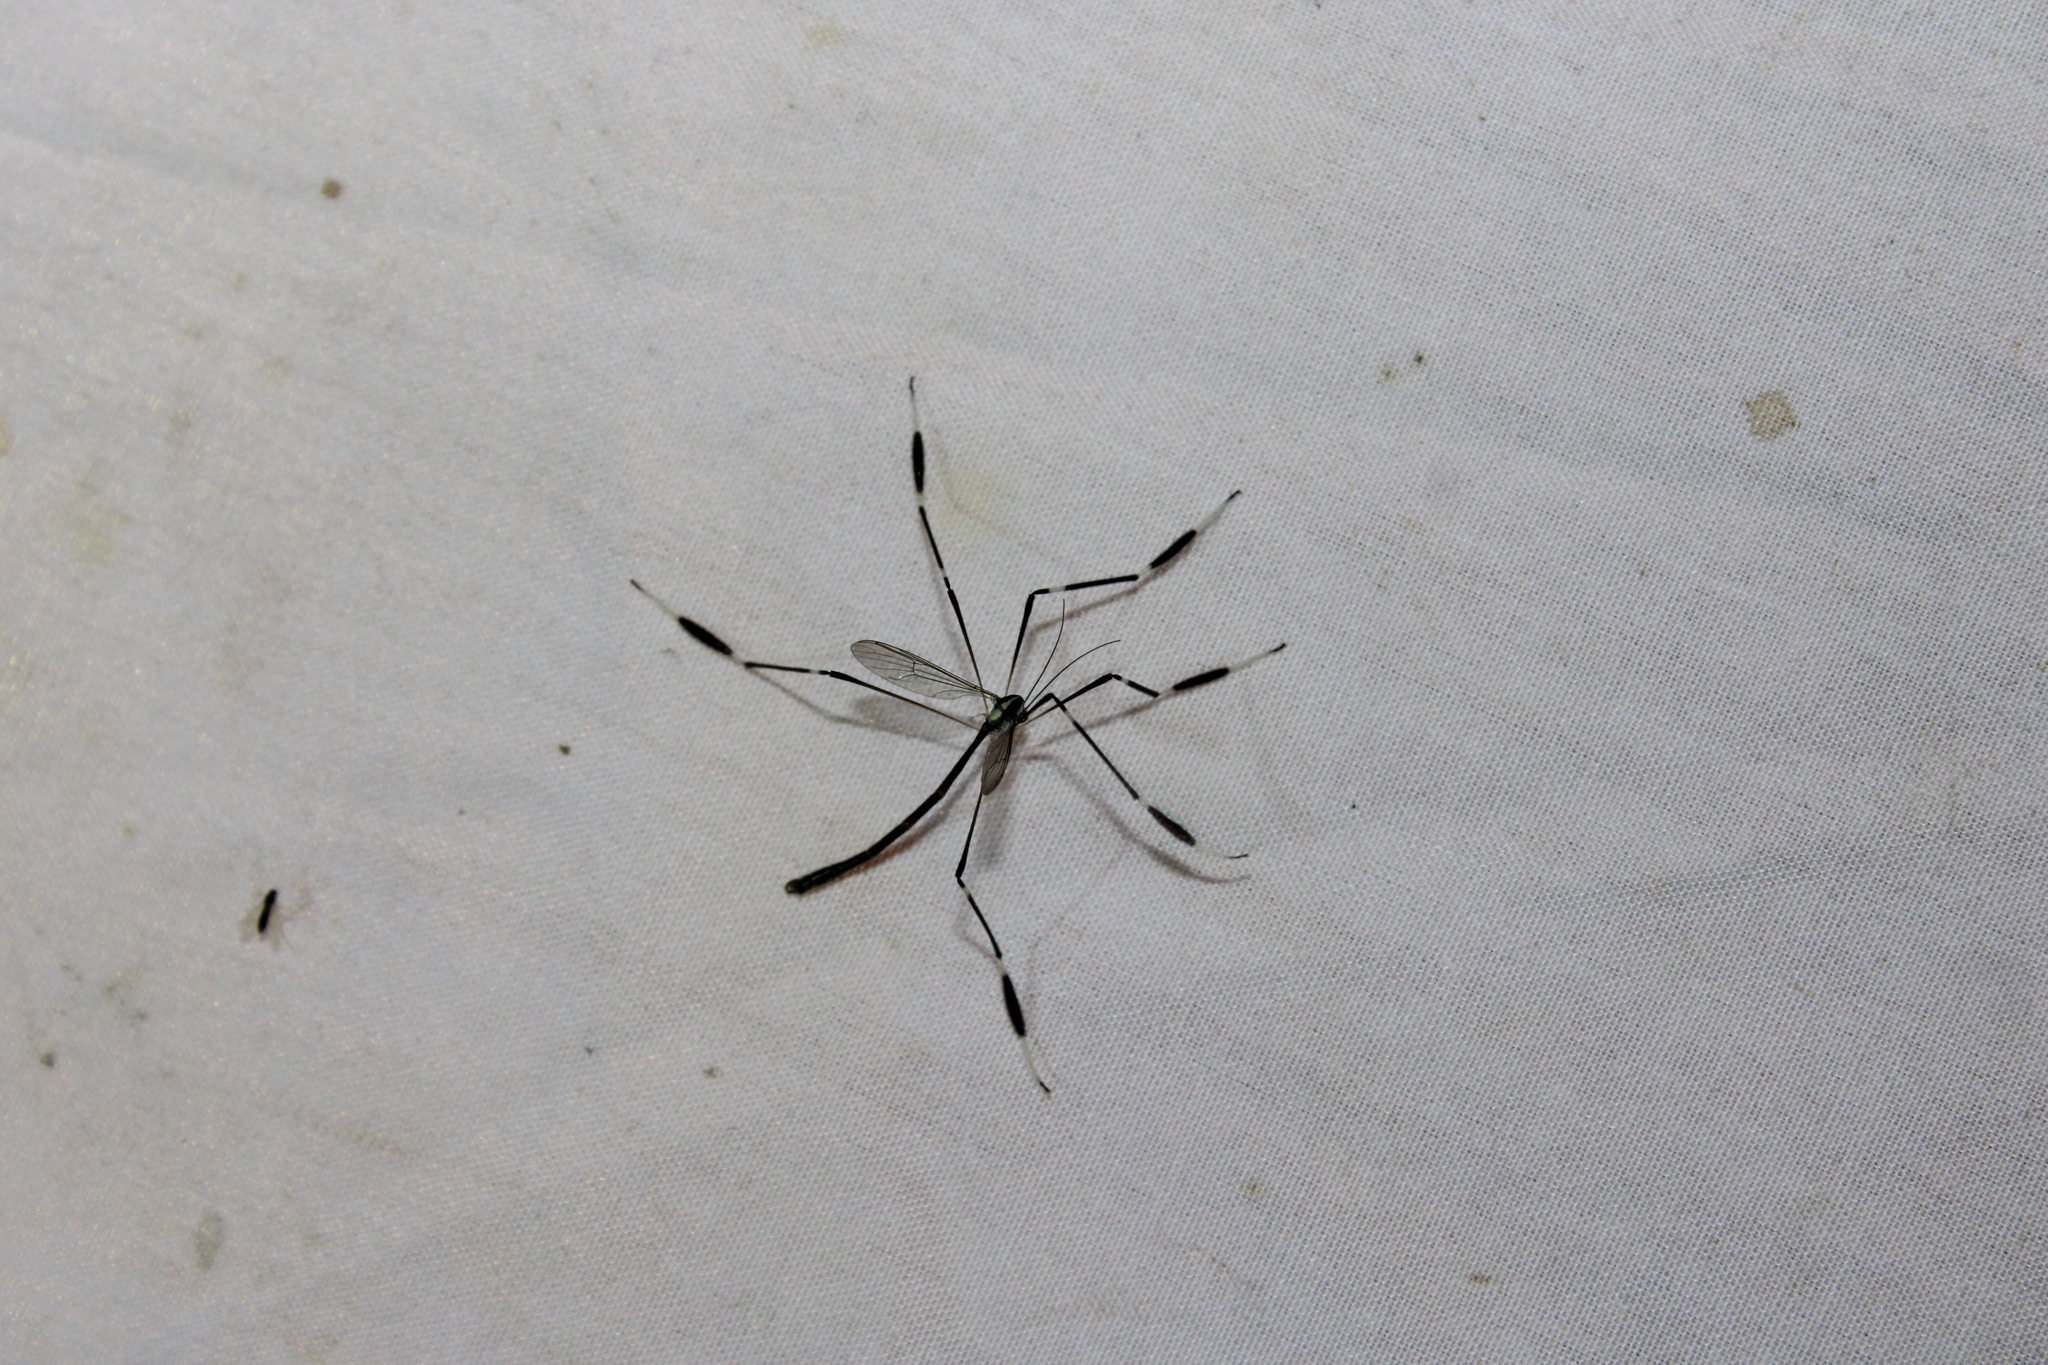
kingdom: Animalia
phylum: Arthropoda
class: Insecta
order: Diptera
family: Ptychopteridae
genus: Bittacomorpha
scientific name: Bittacomorpha clavipes
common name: Eastern phantom crane fly
